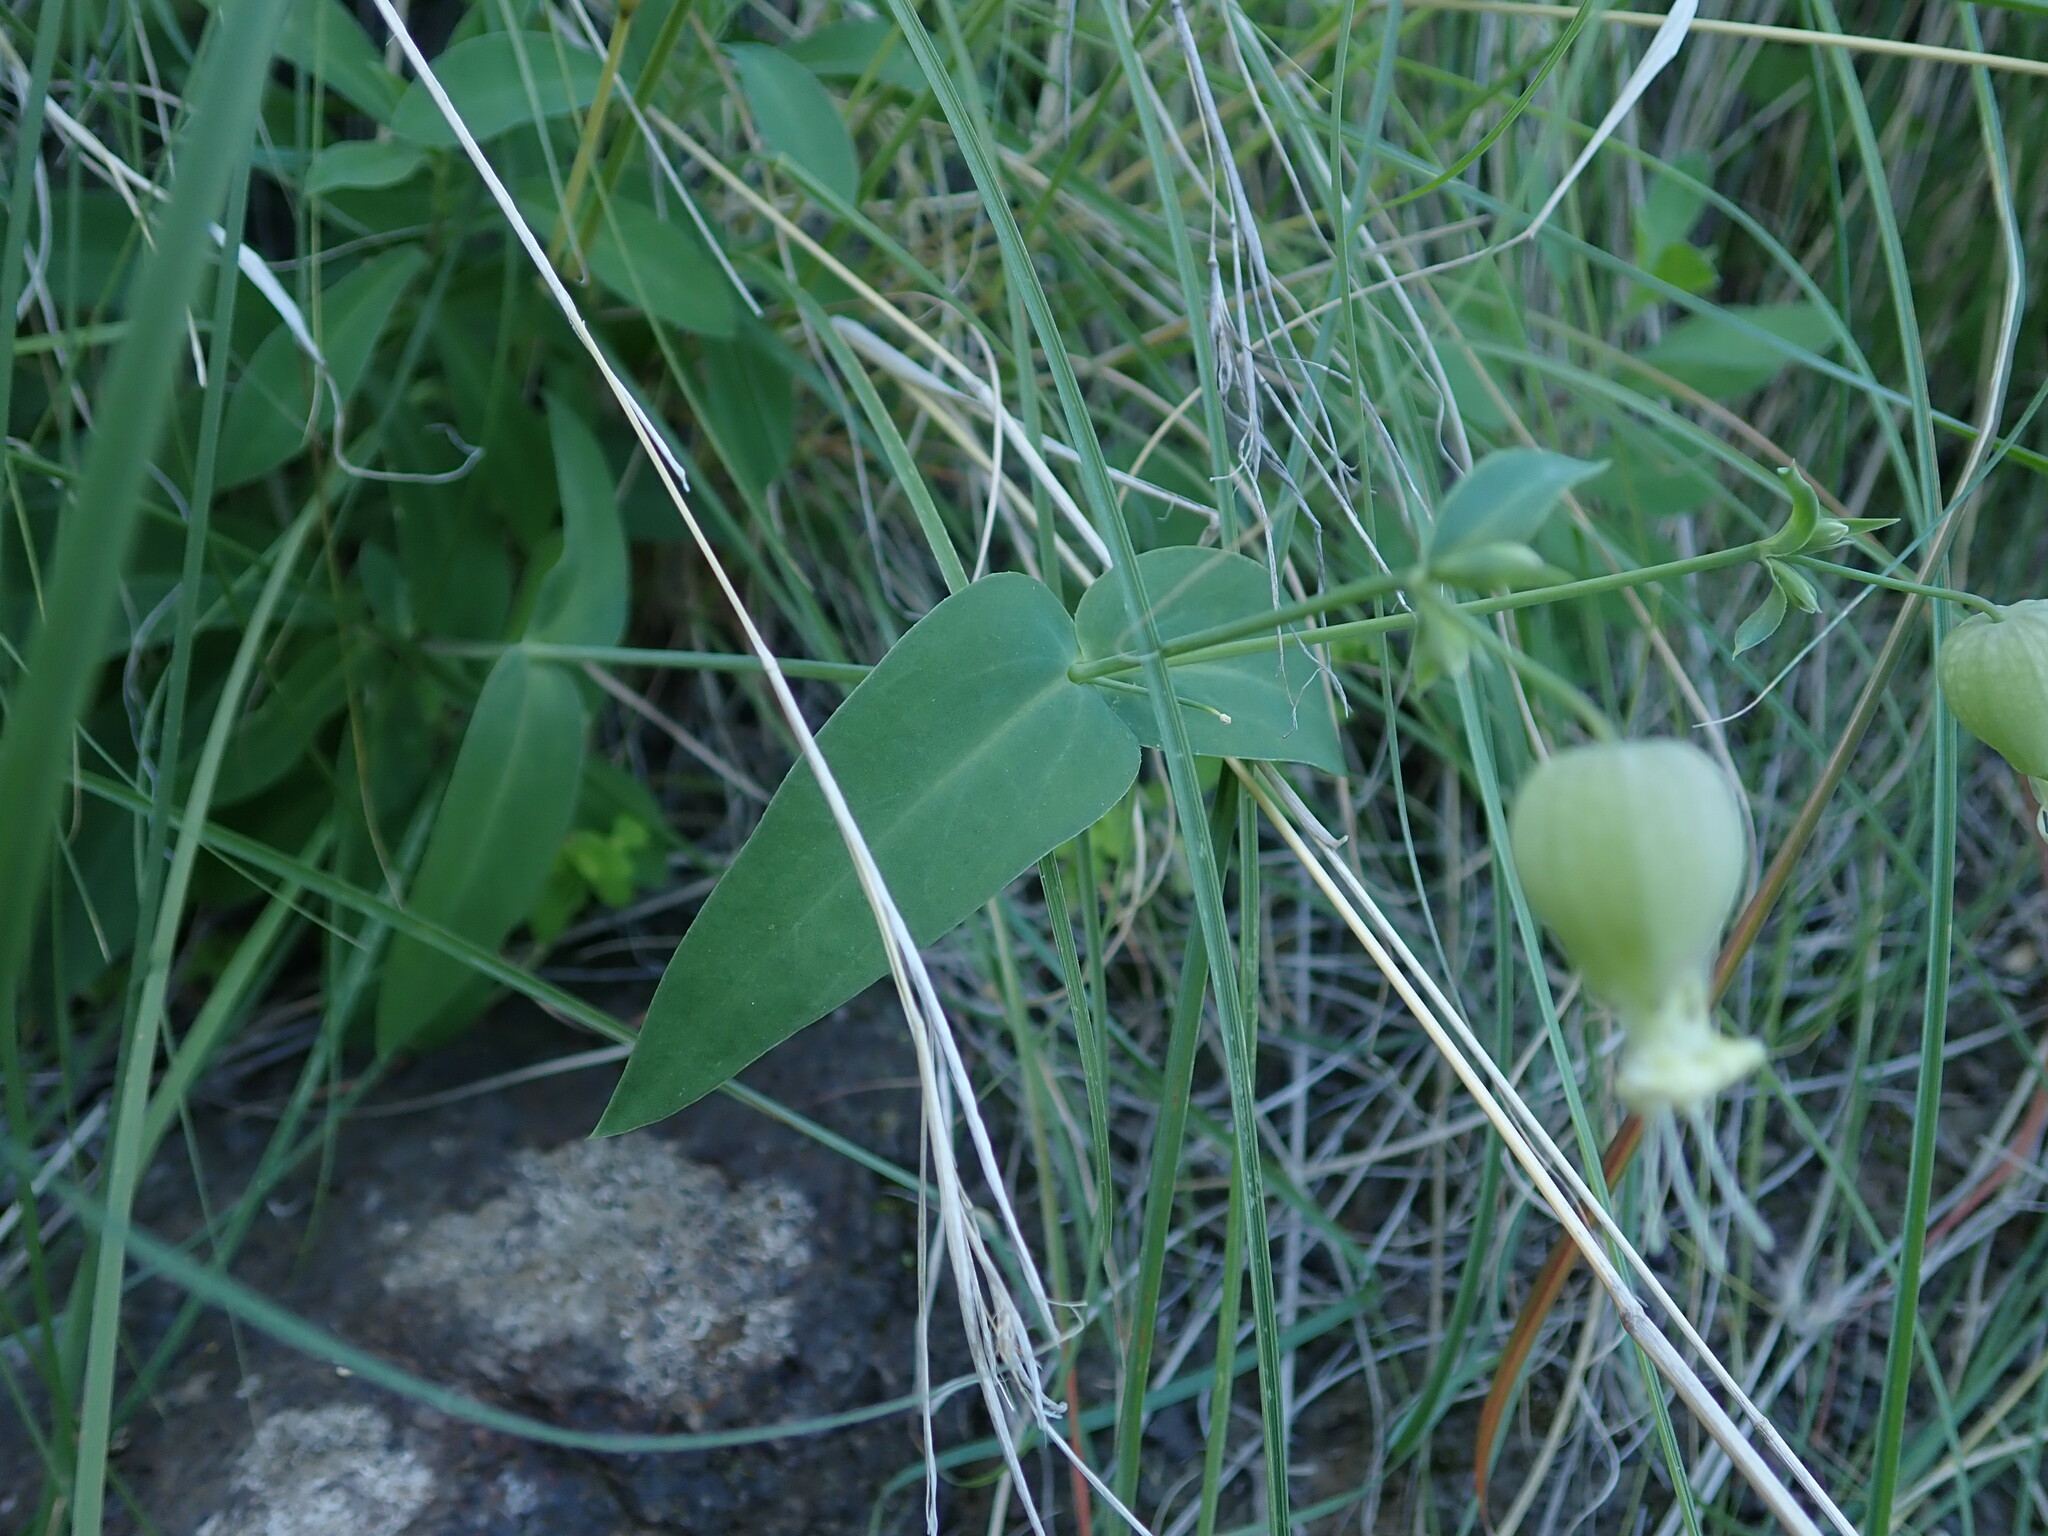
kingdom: Plantae
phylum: Tracheophyta
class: Magnoliopsida
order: Caryophyllales
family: Caryophyllaceae
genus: Silene
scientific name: Silene vulgaris
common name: Bladder campion
